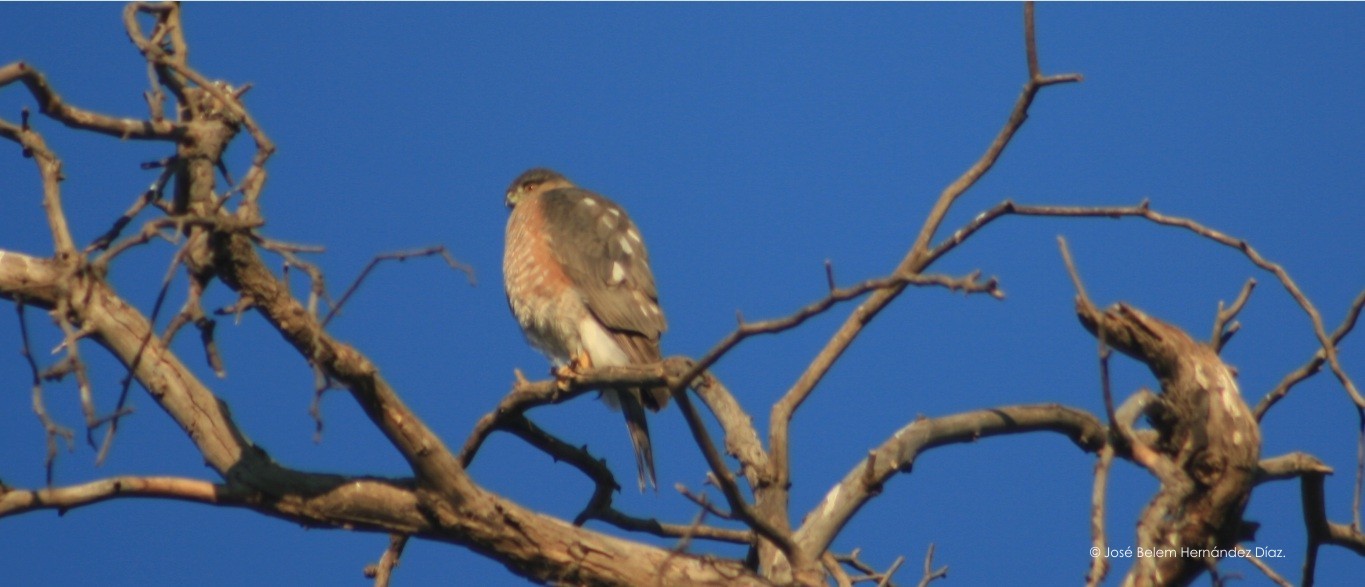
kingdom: Animalia
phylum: Chordata
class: Aves
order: Accipitriformes
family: Accipitridae
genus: Accipiter
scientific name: Accipiter striatus
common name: Sharp-shinned hawk
